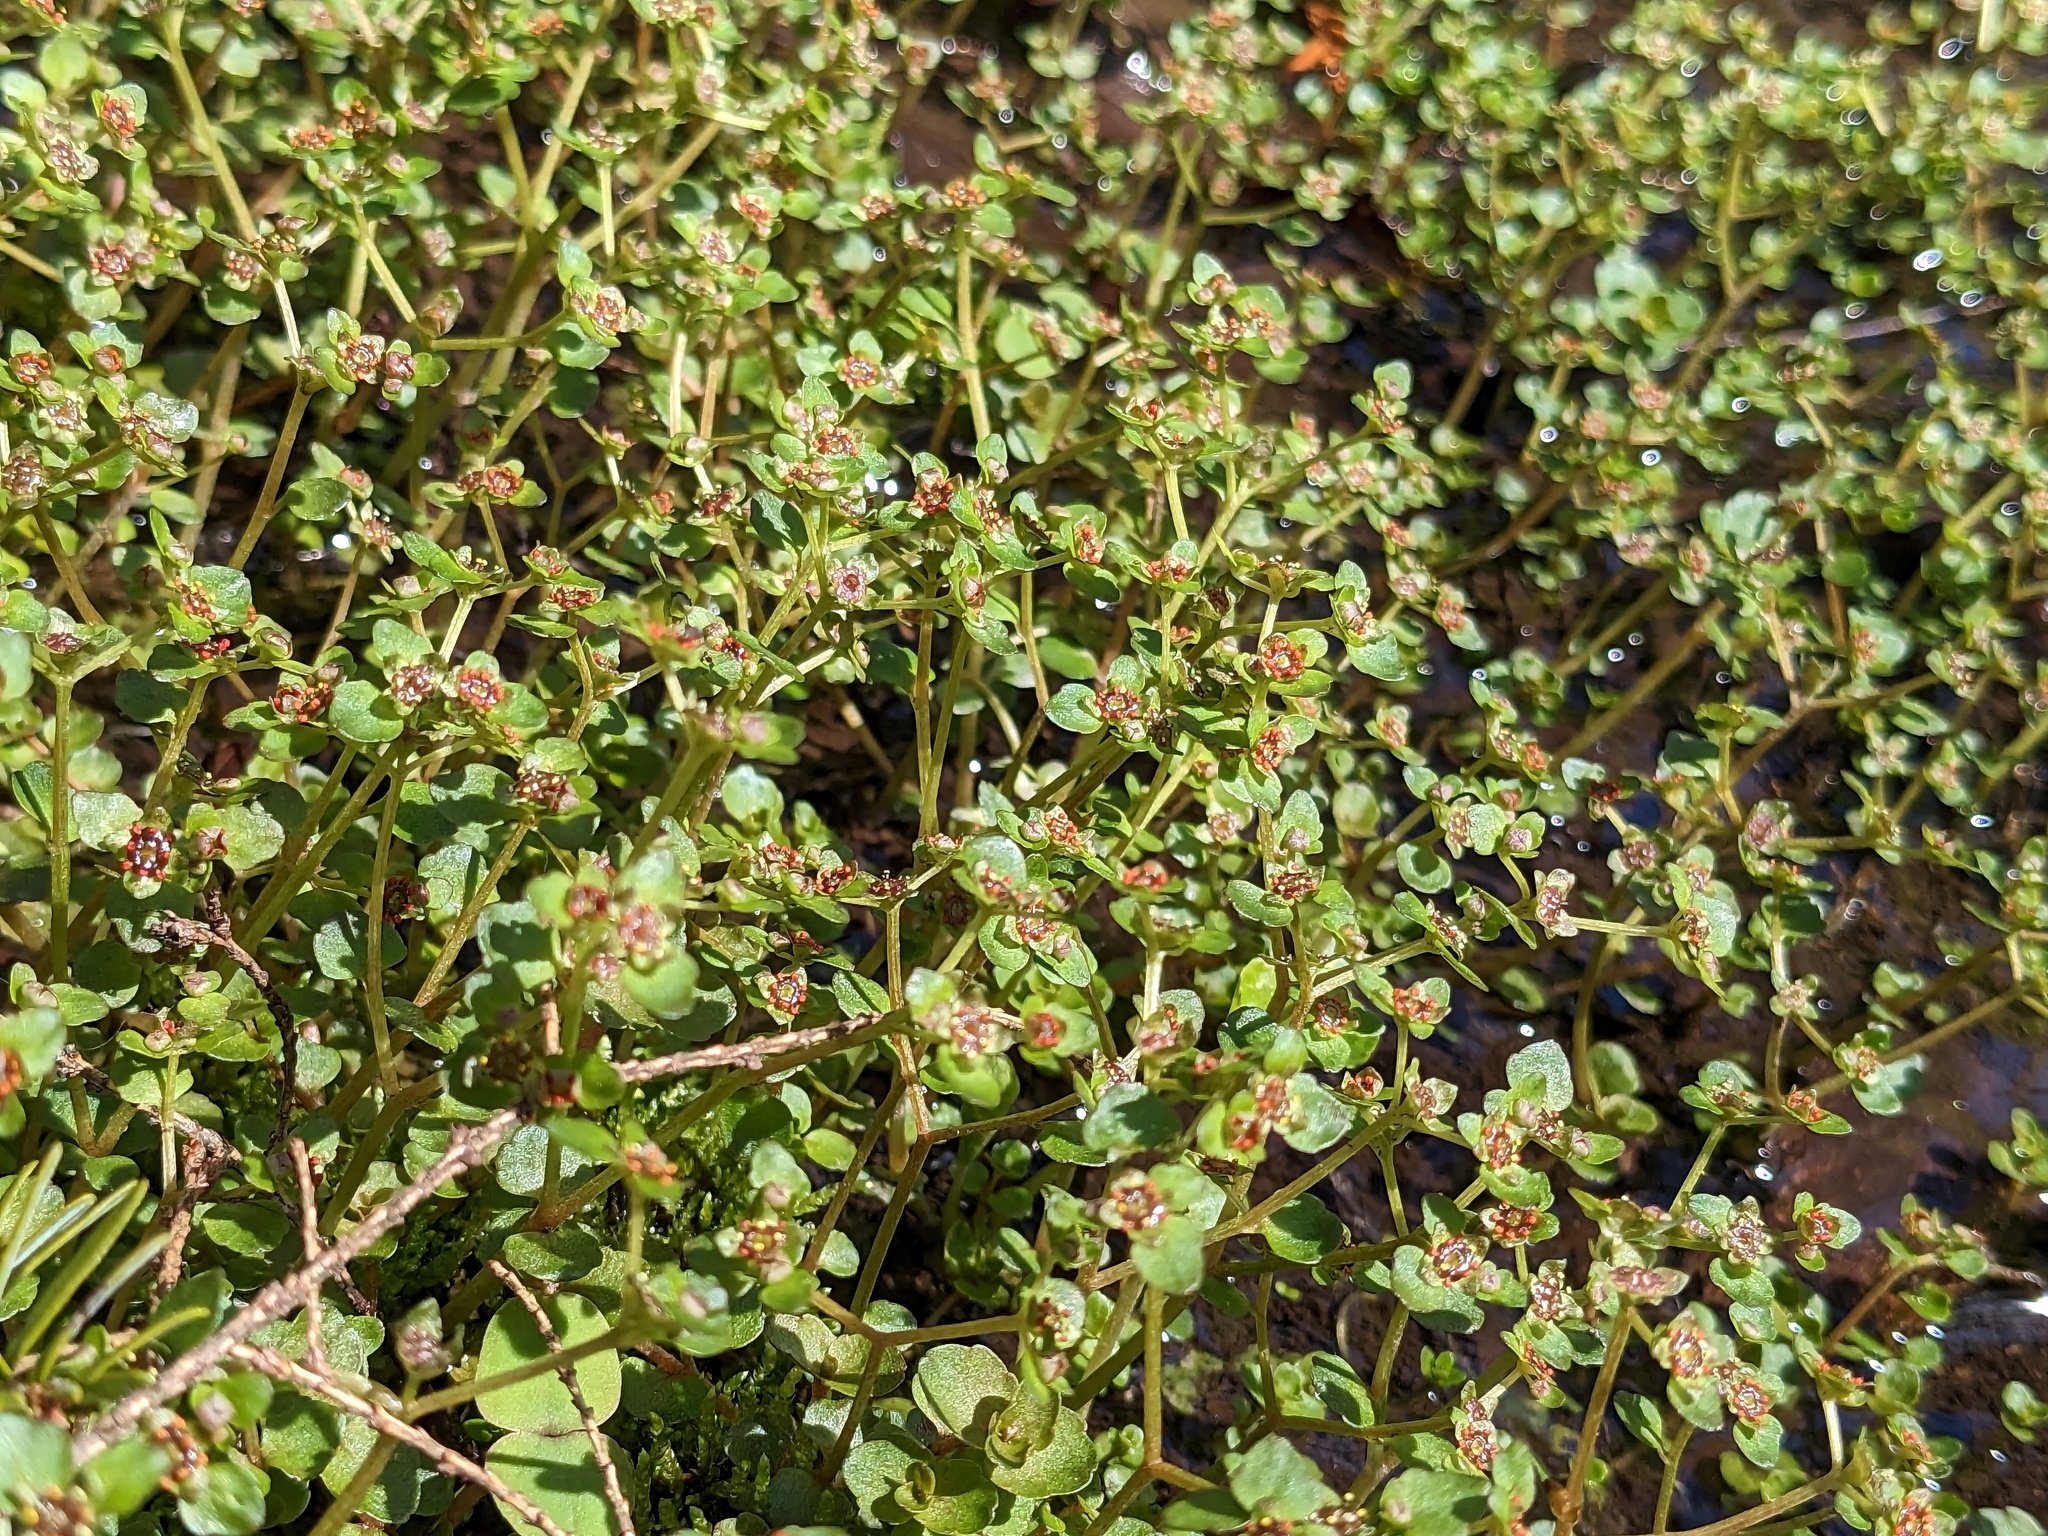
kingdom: Plantae
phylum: Tracheophyta
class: Magnoliopsida
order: Saxifragales
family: Saxifragaceae
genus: Chrysosplenium
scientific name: Chrysosplenium americanum
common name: American golden-saxifrage
